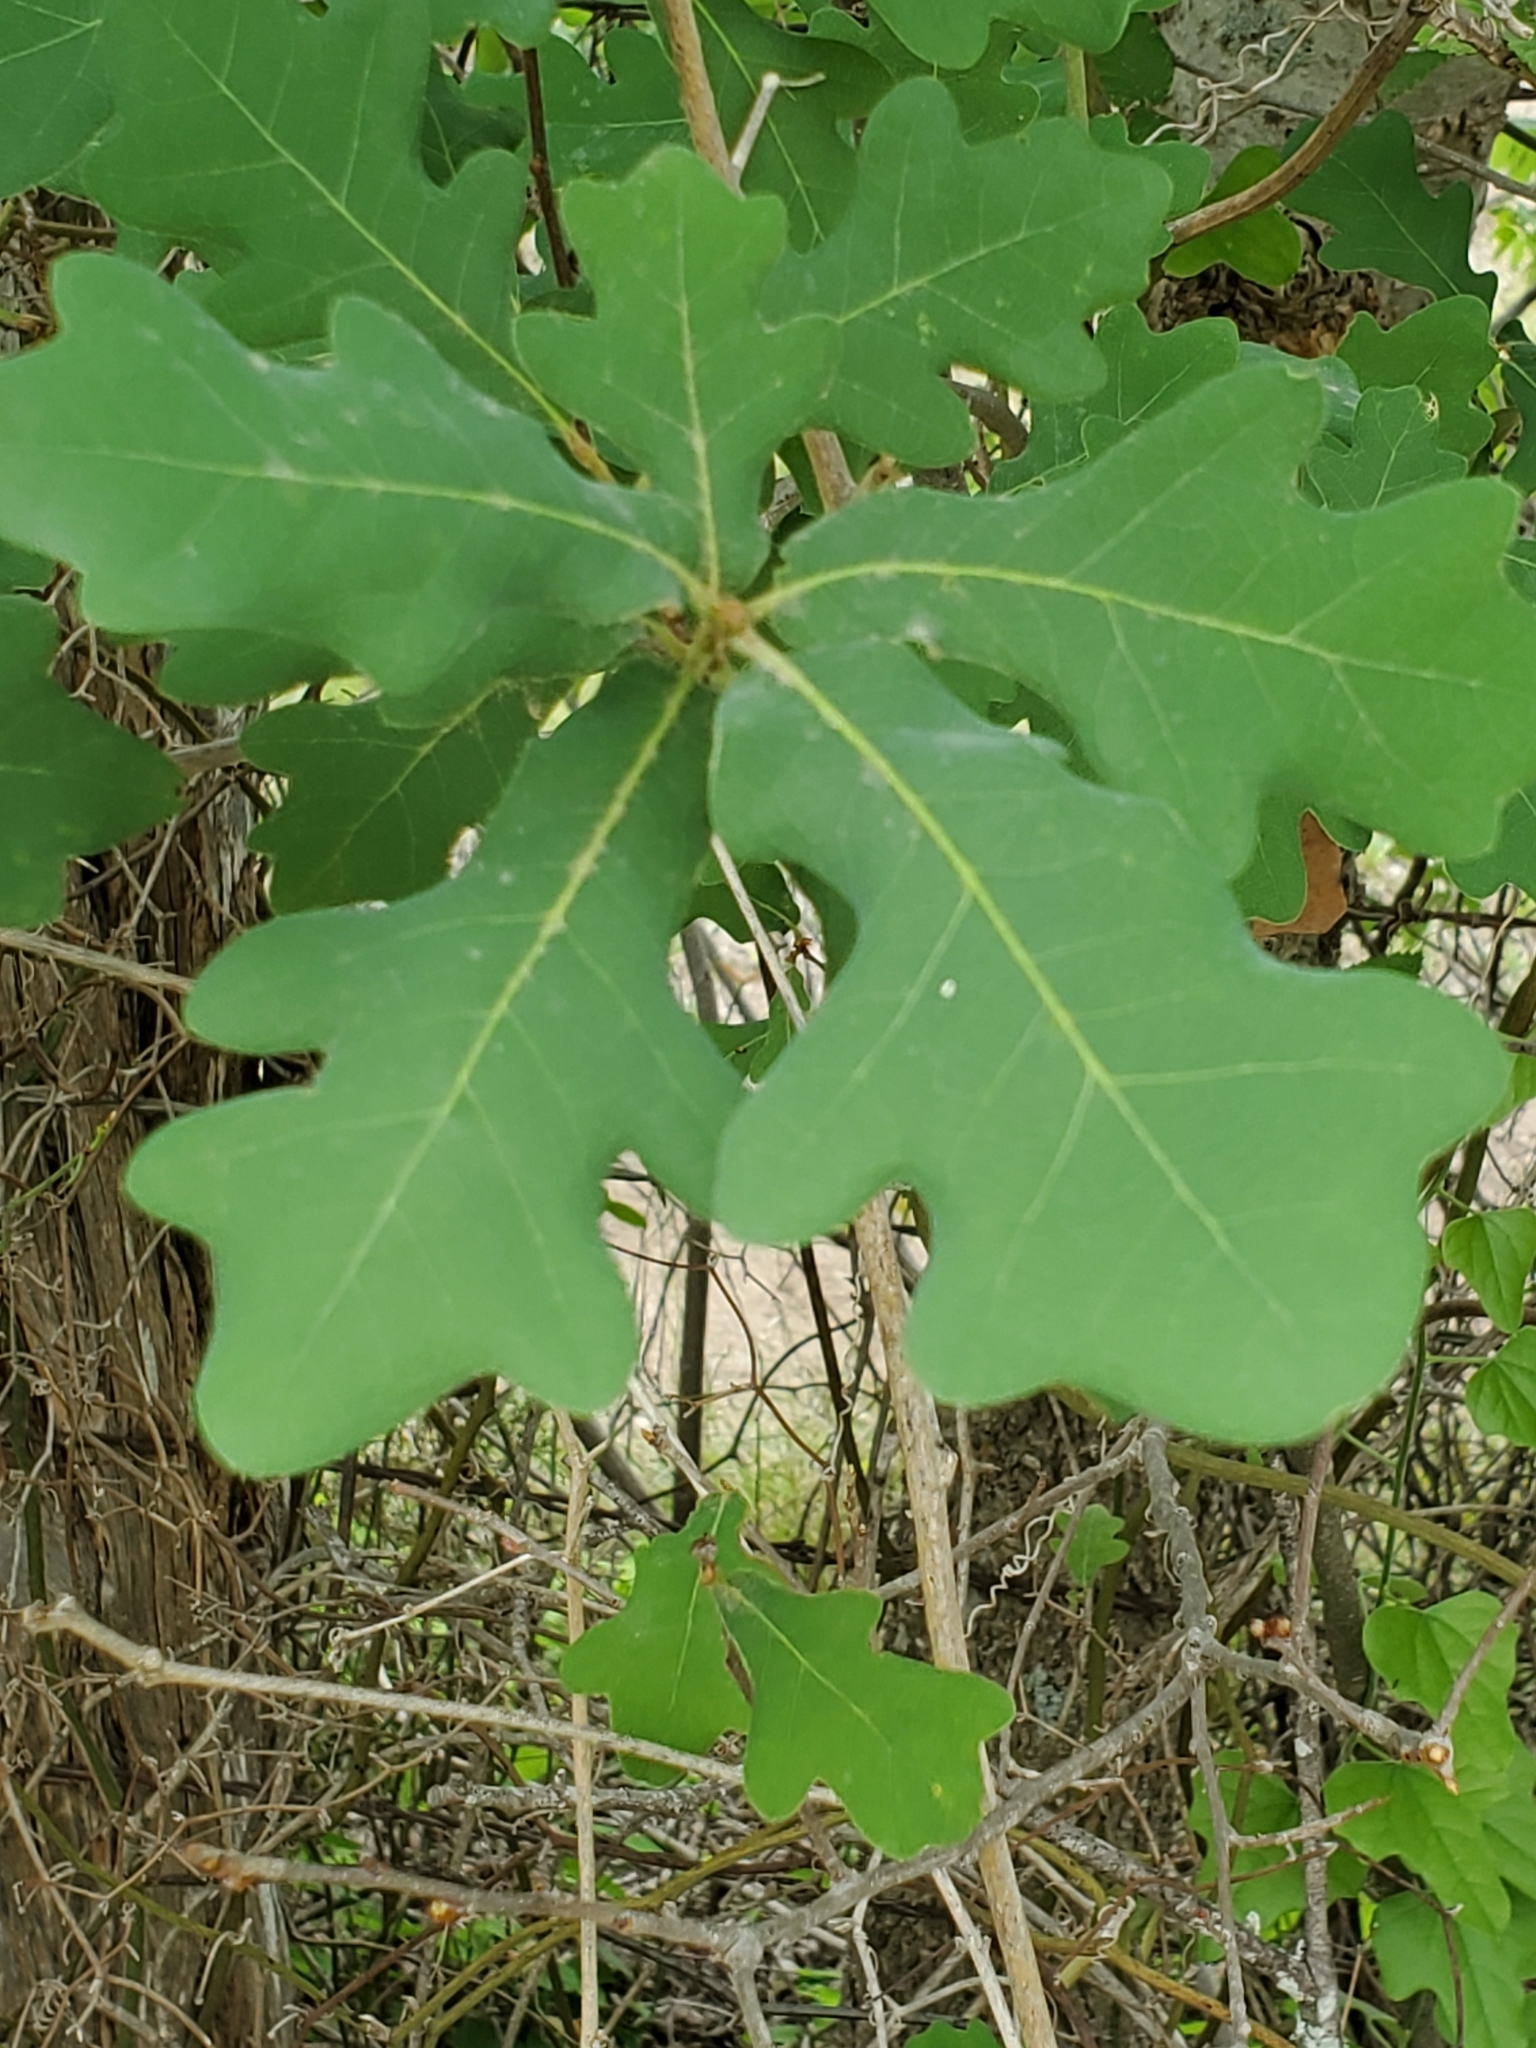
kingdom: Plantae
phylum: Tracheophyta
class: Magnoliopsida
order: Fagales
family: Fagaceae
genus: Quercus
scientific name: Quercus laceyi
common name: Lacey oak
